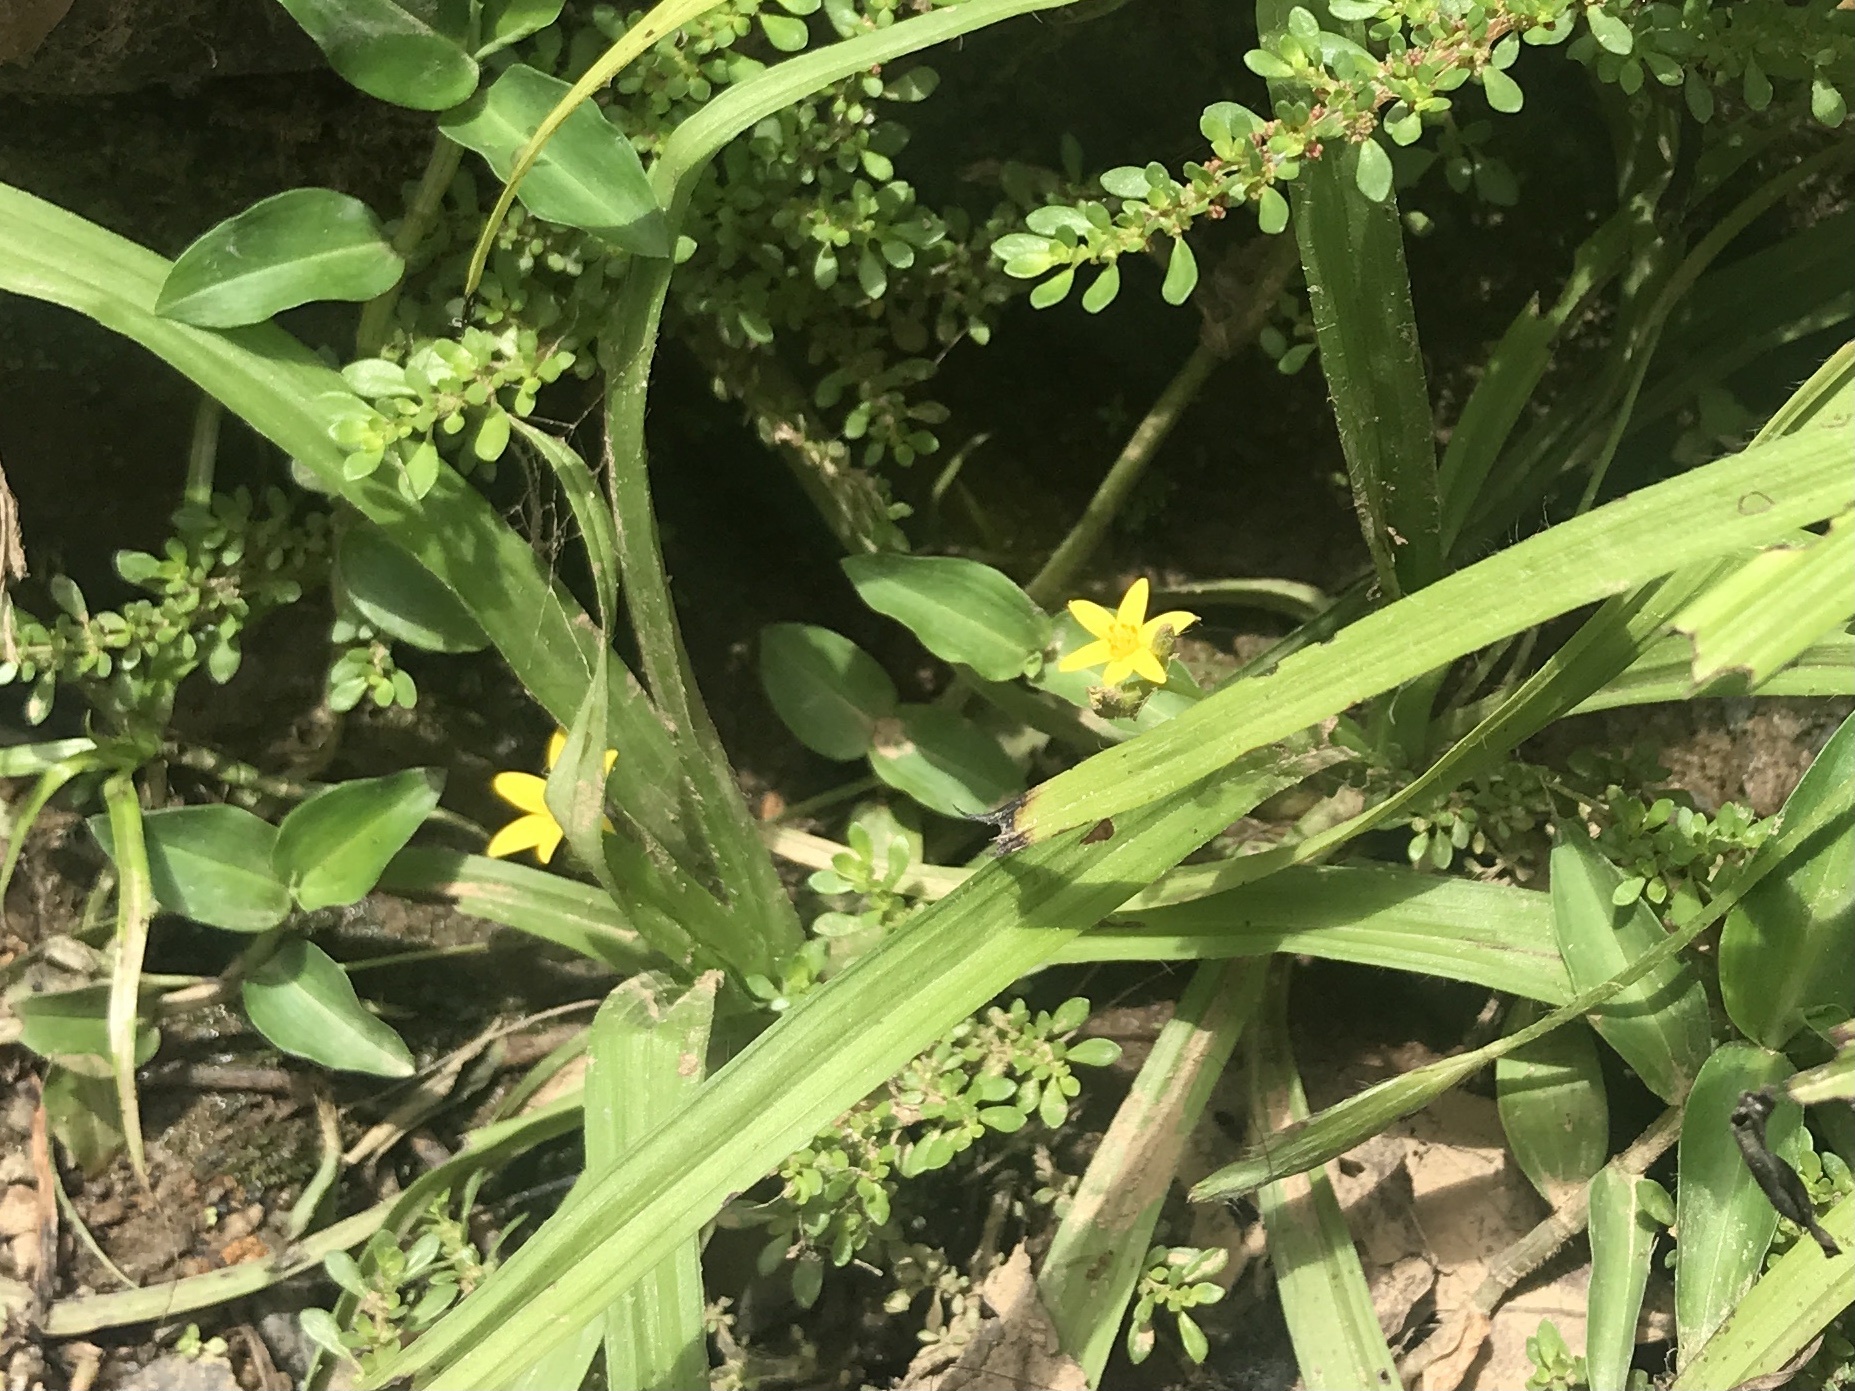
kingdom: Plantae
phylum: Tracheophyta
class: Liliopsida
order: Asparagales
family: Hypoxidaceae
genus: Hypoxis
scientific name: Hypoxis decumbens
